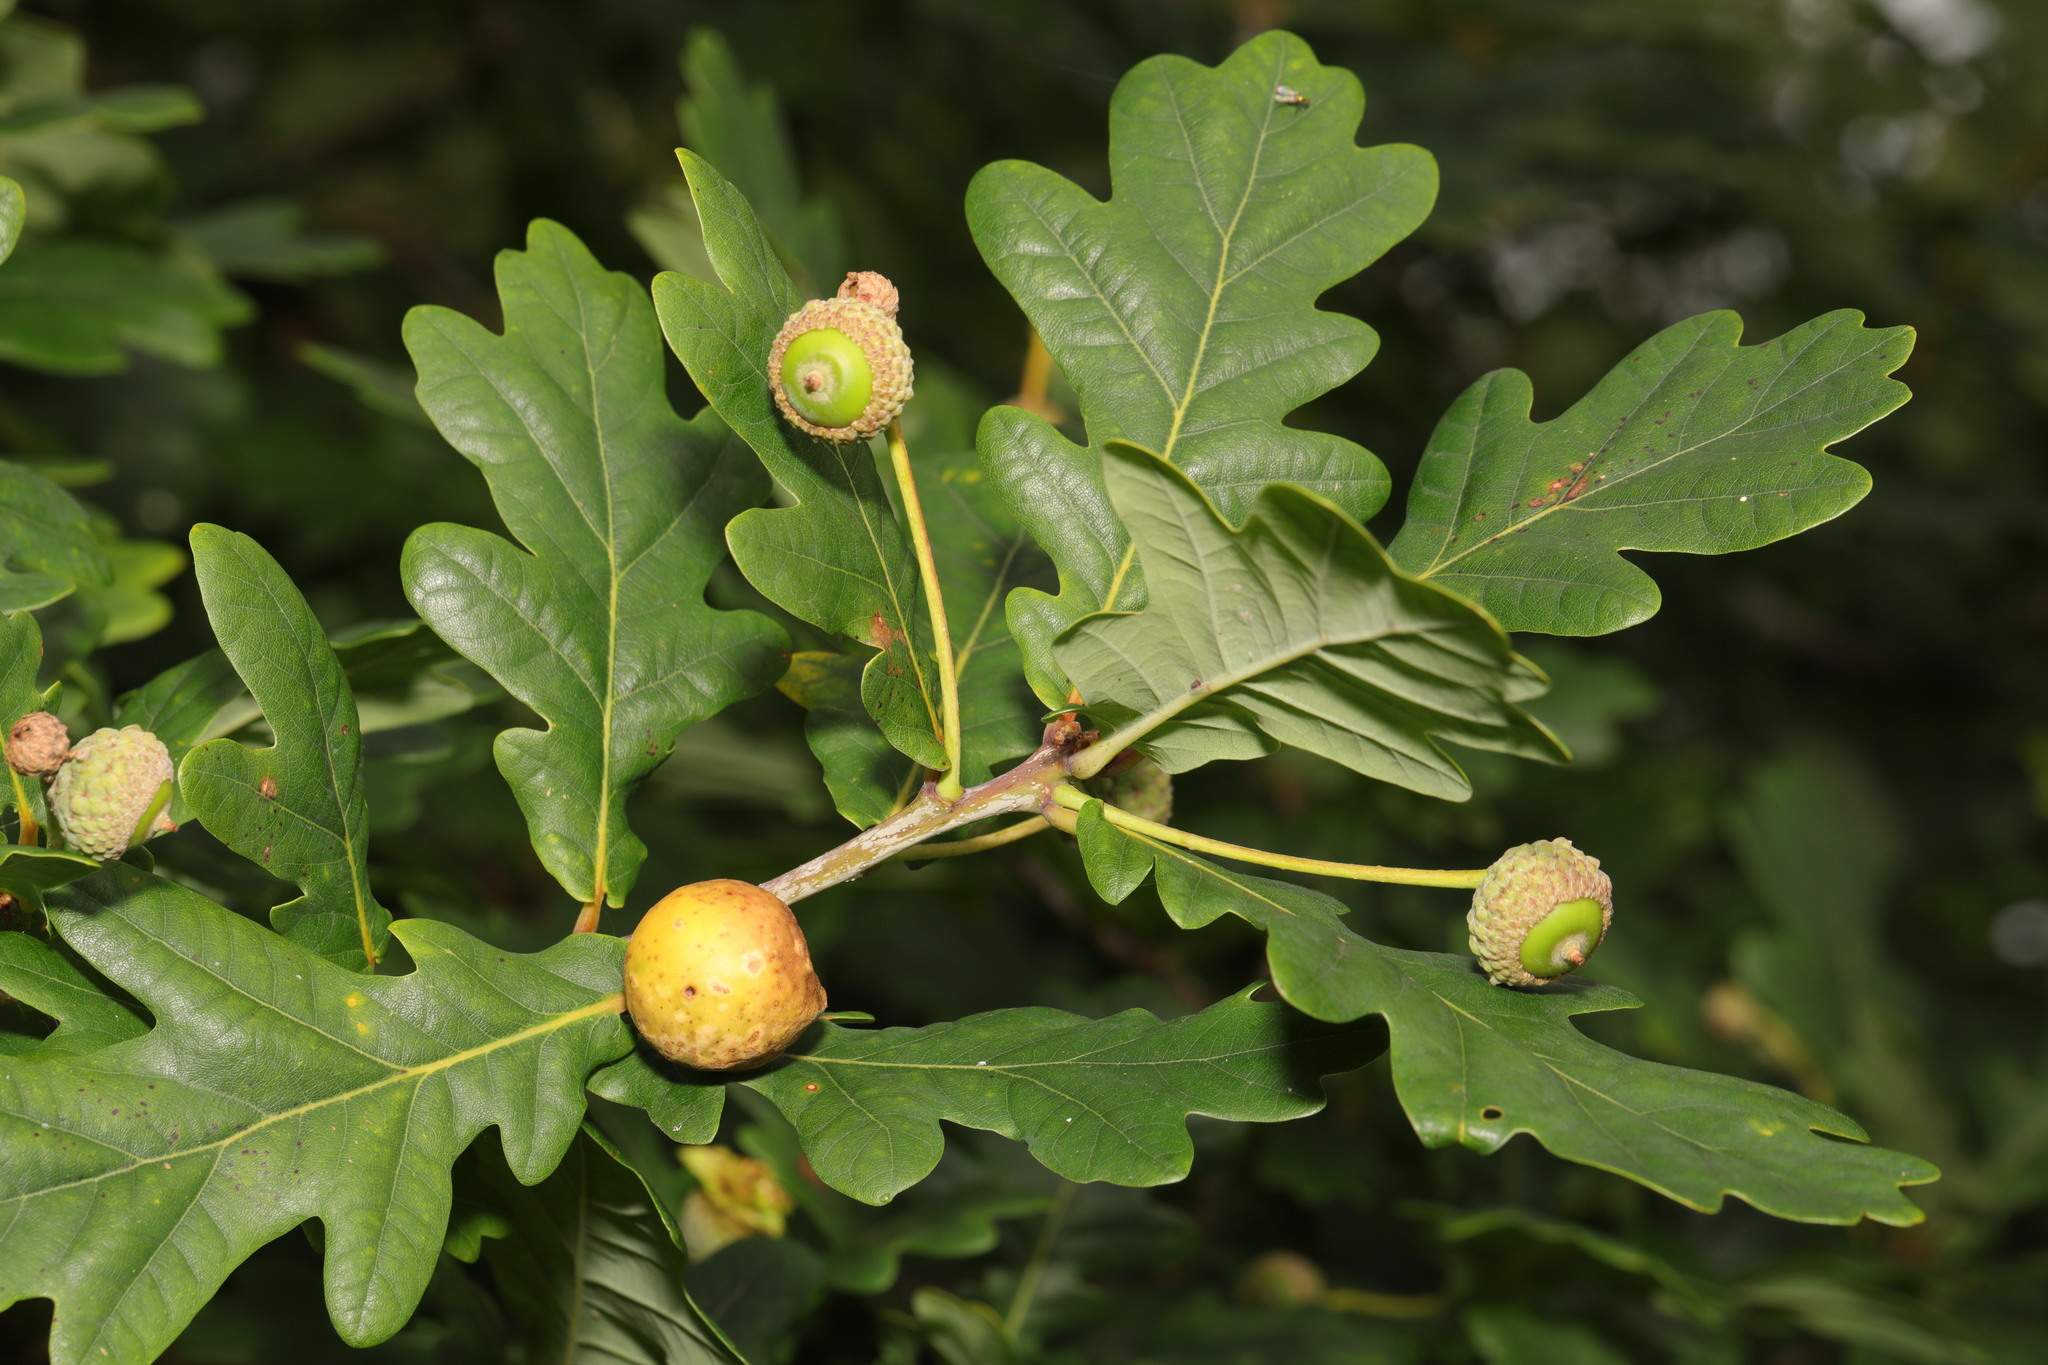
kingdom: Plantae
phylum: Tracheophyta
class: Magnoliopsida
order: Fagales
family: Fagaceae
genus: Quercus
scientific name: Quercus robur
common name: Pedunculate oak
